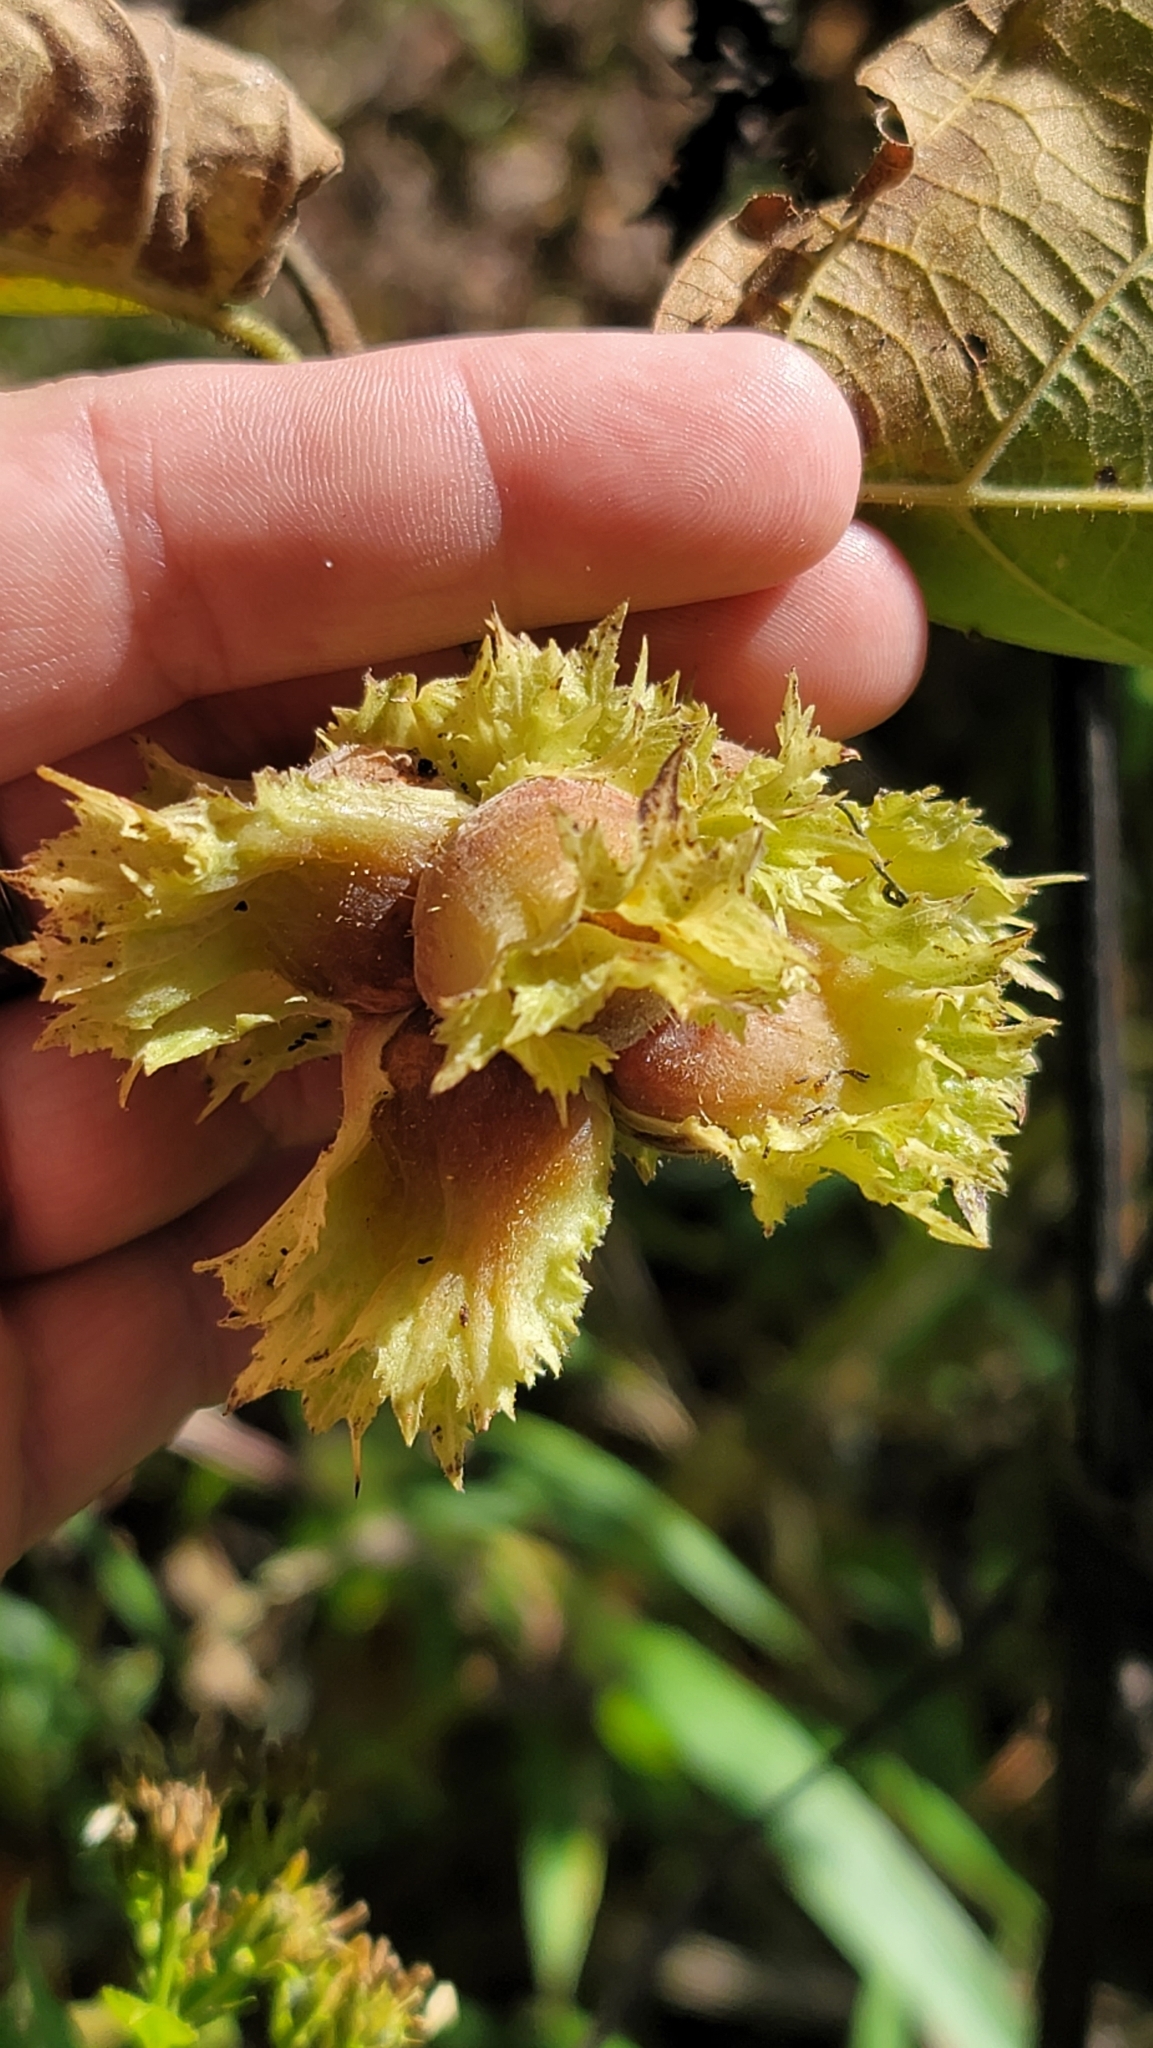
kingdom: Plantae
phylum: Tracheophyta
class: Magnoliopsida
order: Fagales
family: Betulaceae
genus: Corylus
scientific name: Corylus americana
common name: American hazel
